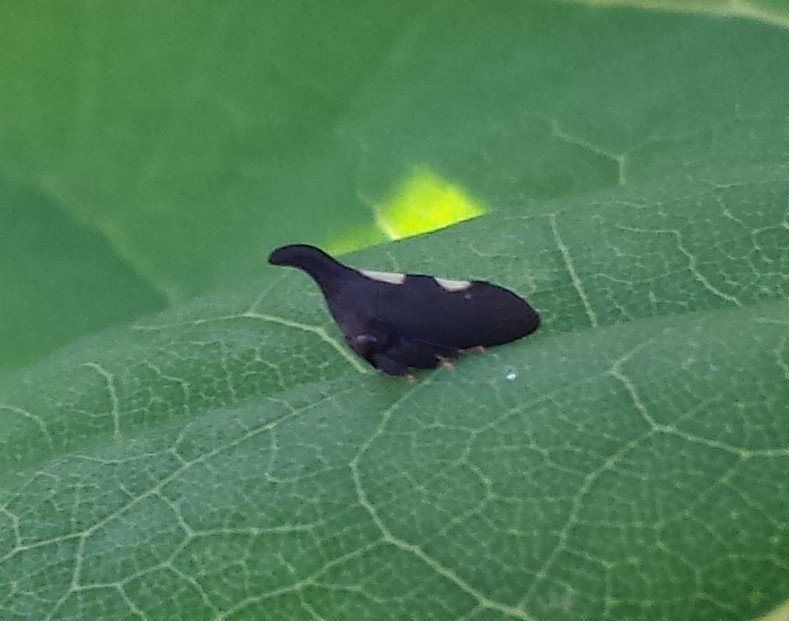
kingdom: Animalia
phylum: Arthropoda
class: Insecta
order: Hemiptera
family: Membracidae
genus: Enchenopa
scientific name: Enchenopa
